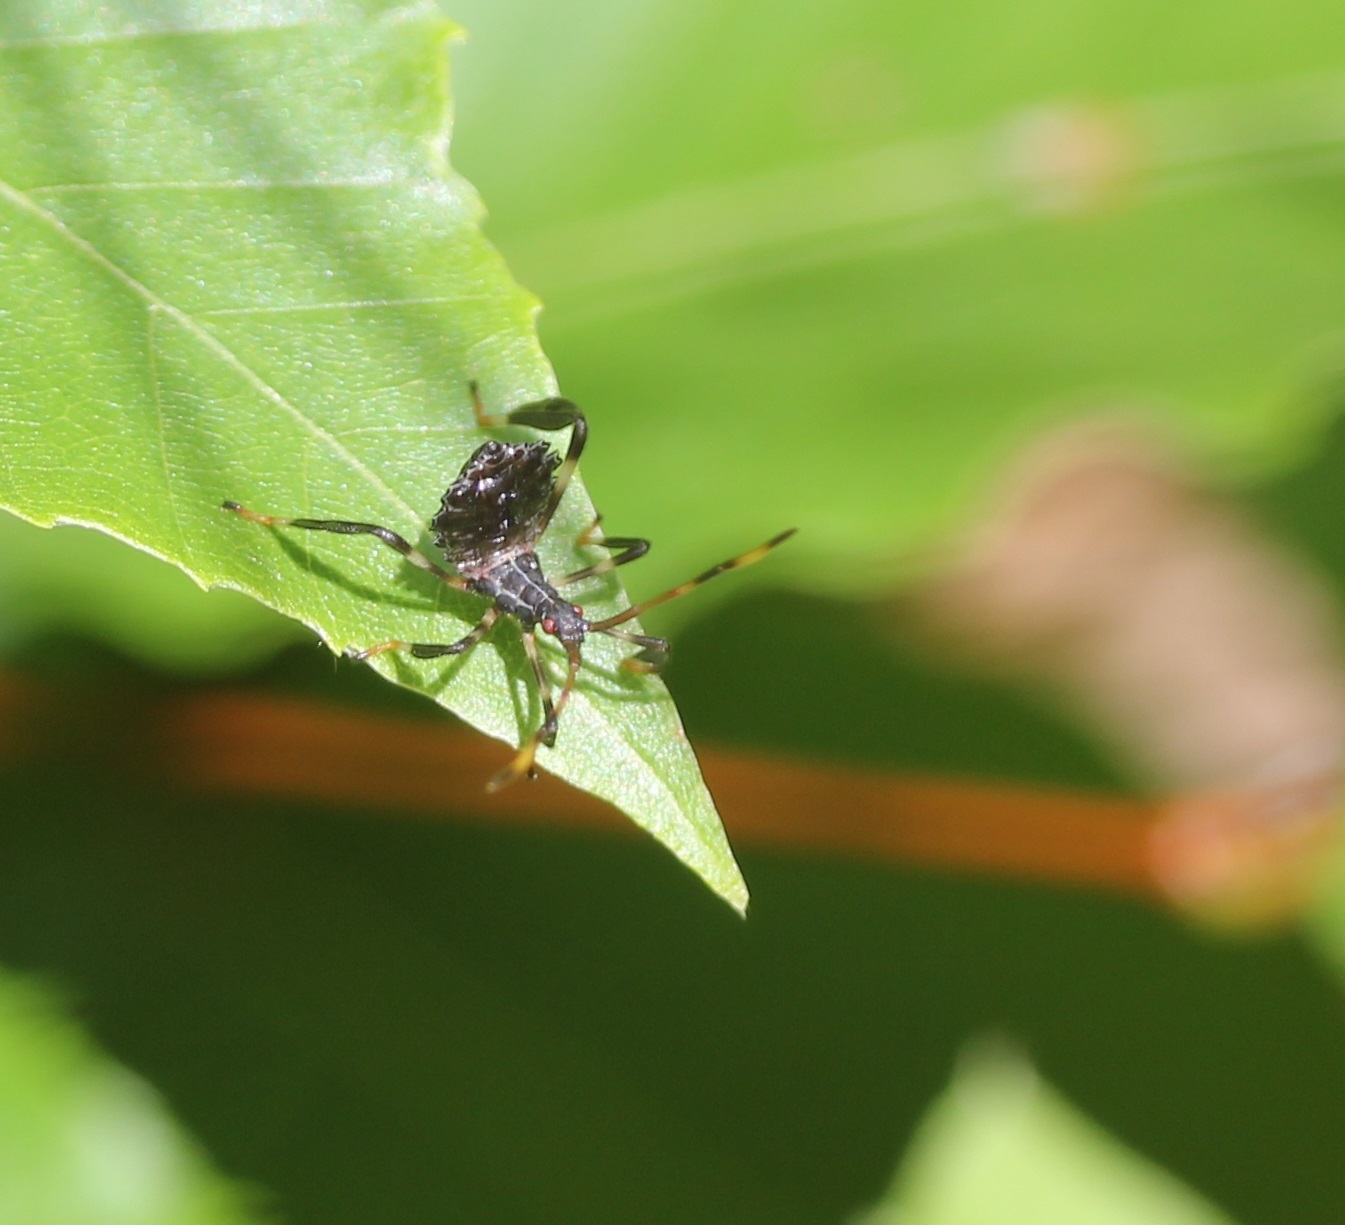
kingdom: Animalia
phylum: Arthropoda
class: Insecta
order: Hemiptera
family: Coreidae
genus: Acanthocephala
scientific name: Acanthocephala terminalis
